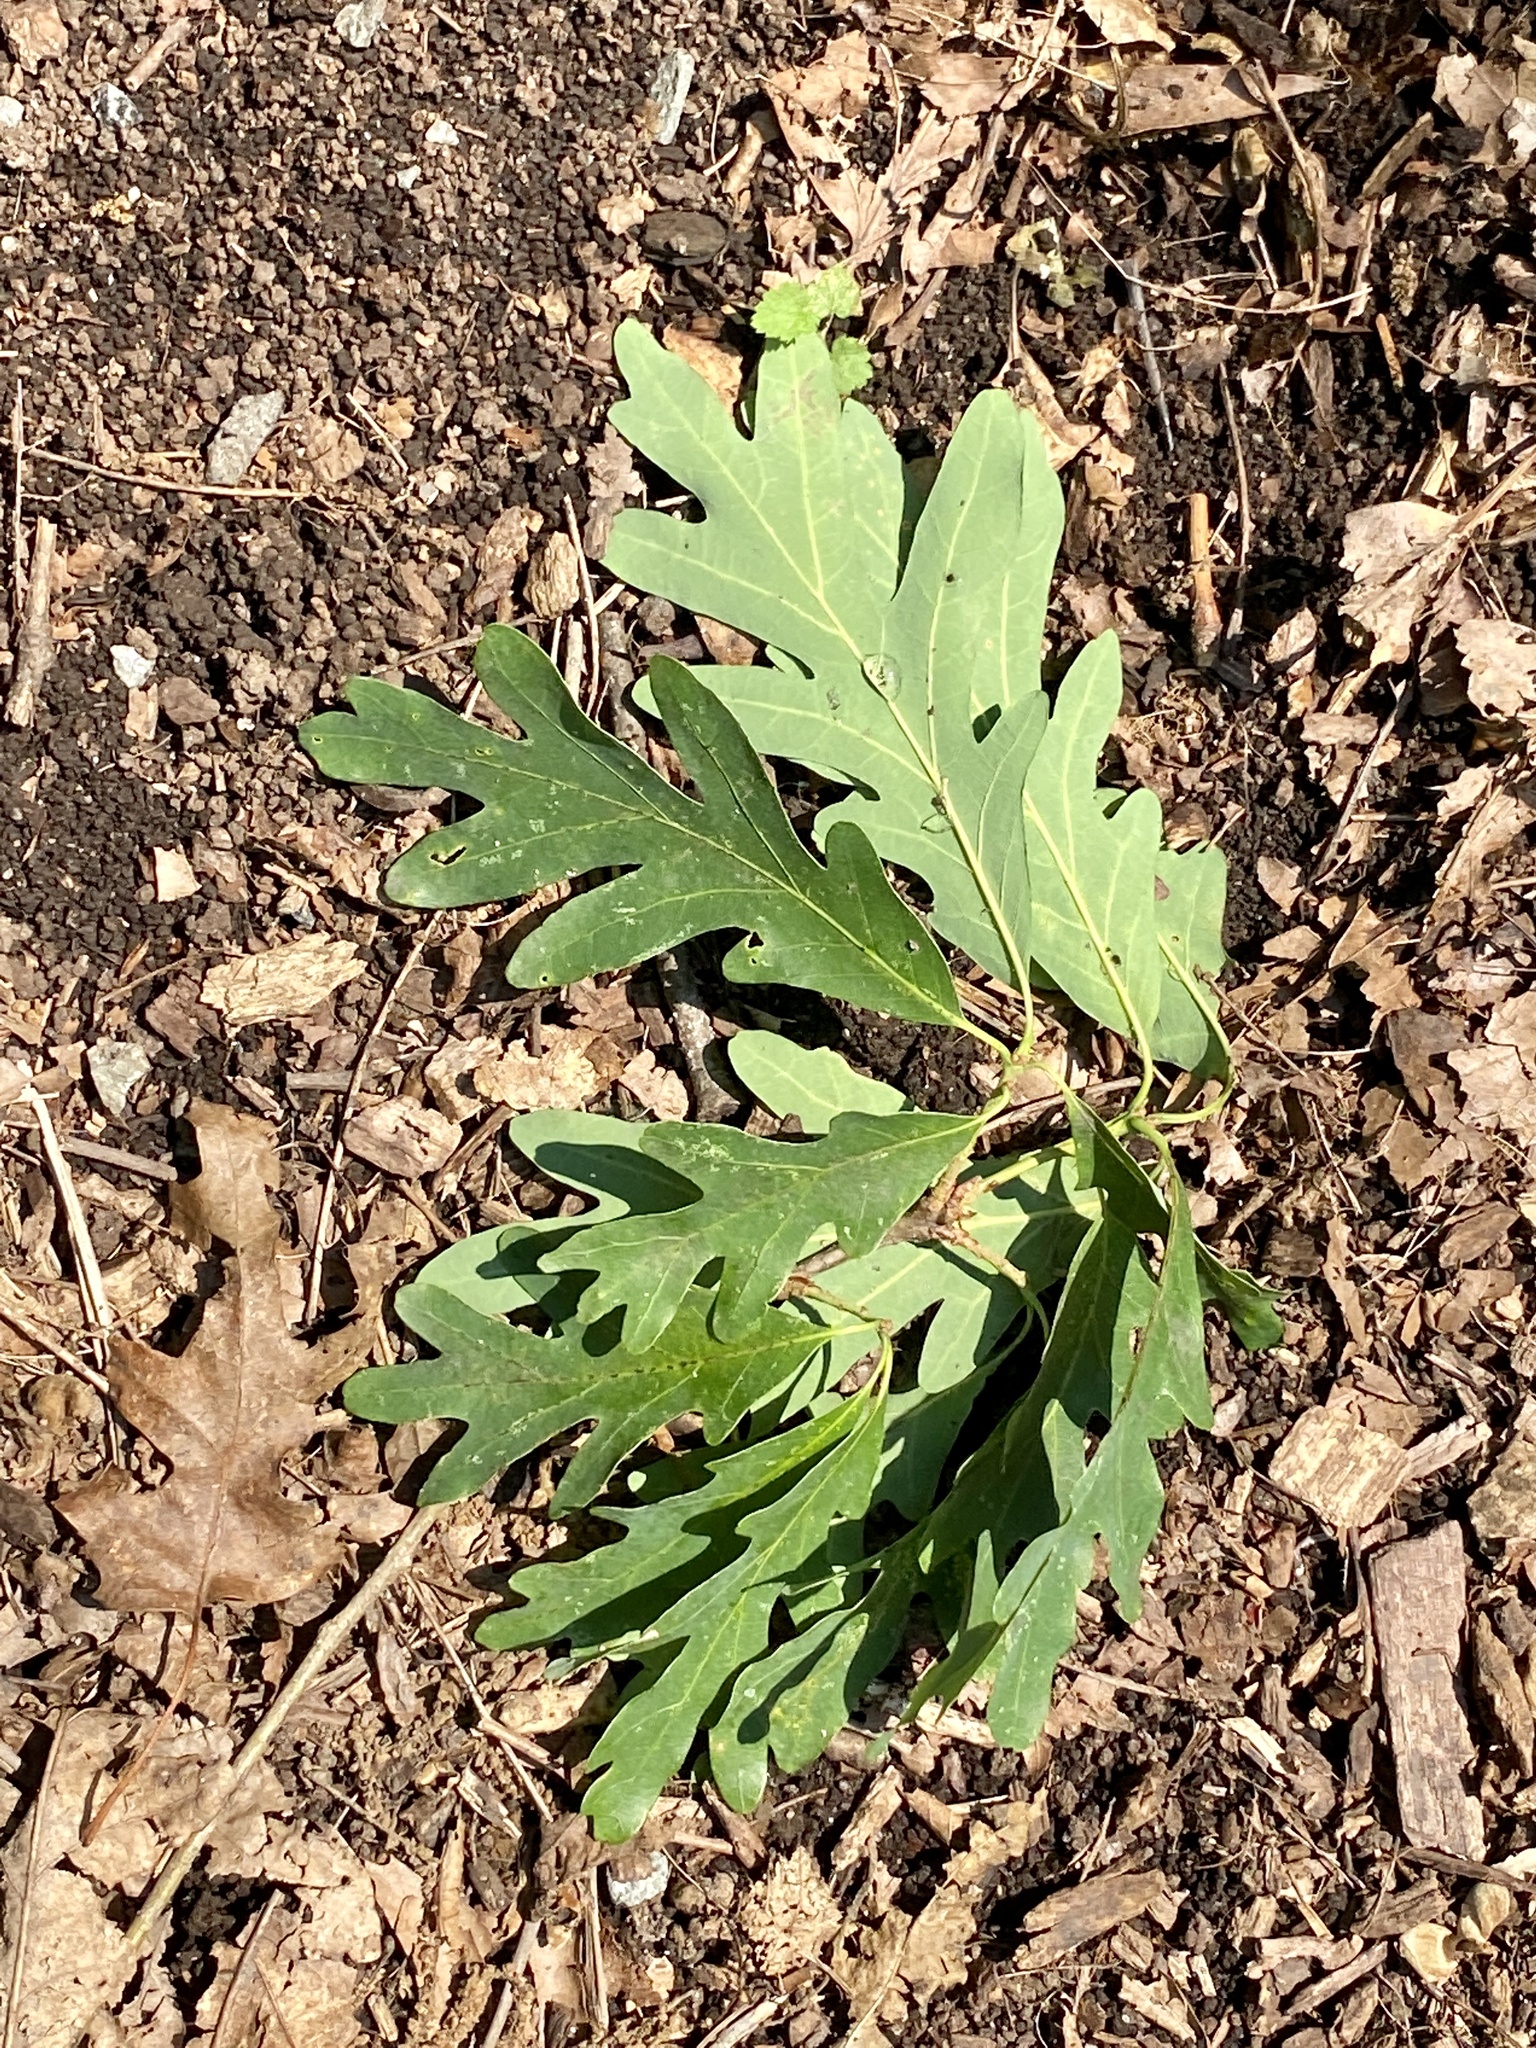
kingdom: Plantae
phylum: Tracheophyta
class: Magnoliopsida
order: Fagales
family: Fagaceae
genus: Quercus
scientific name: Quercus alba
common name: White oak
